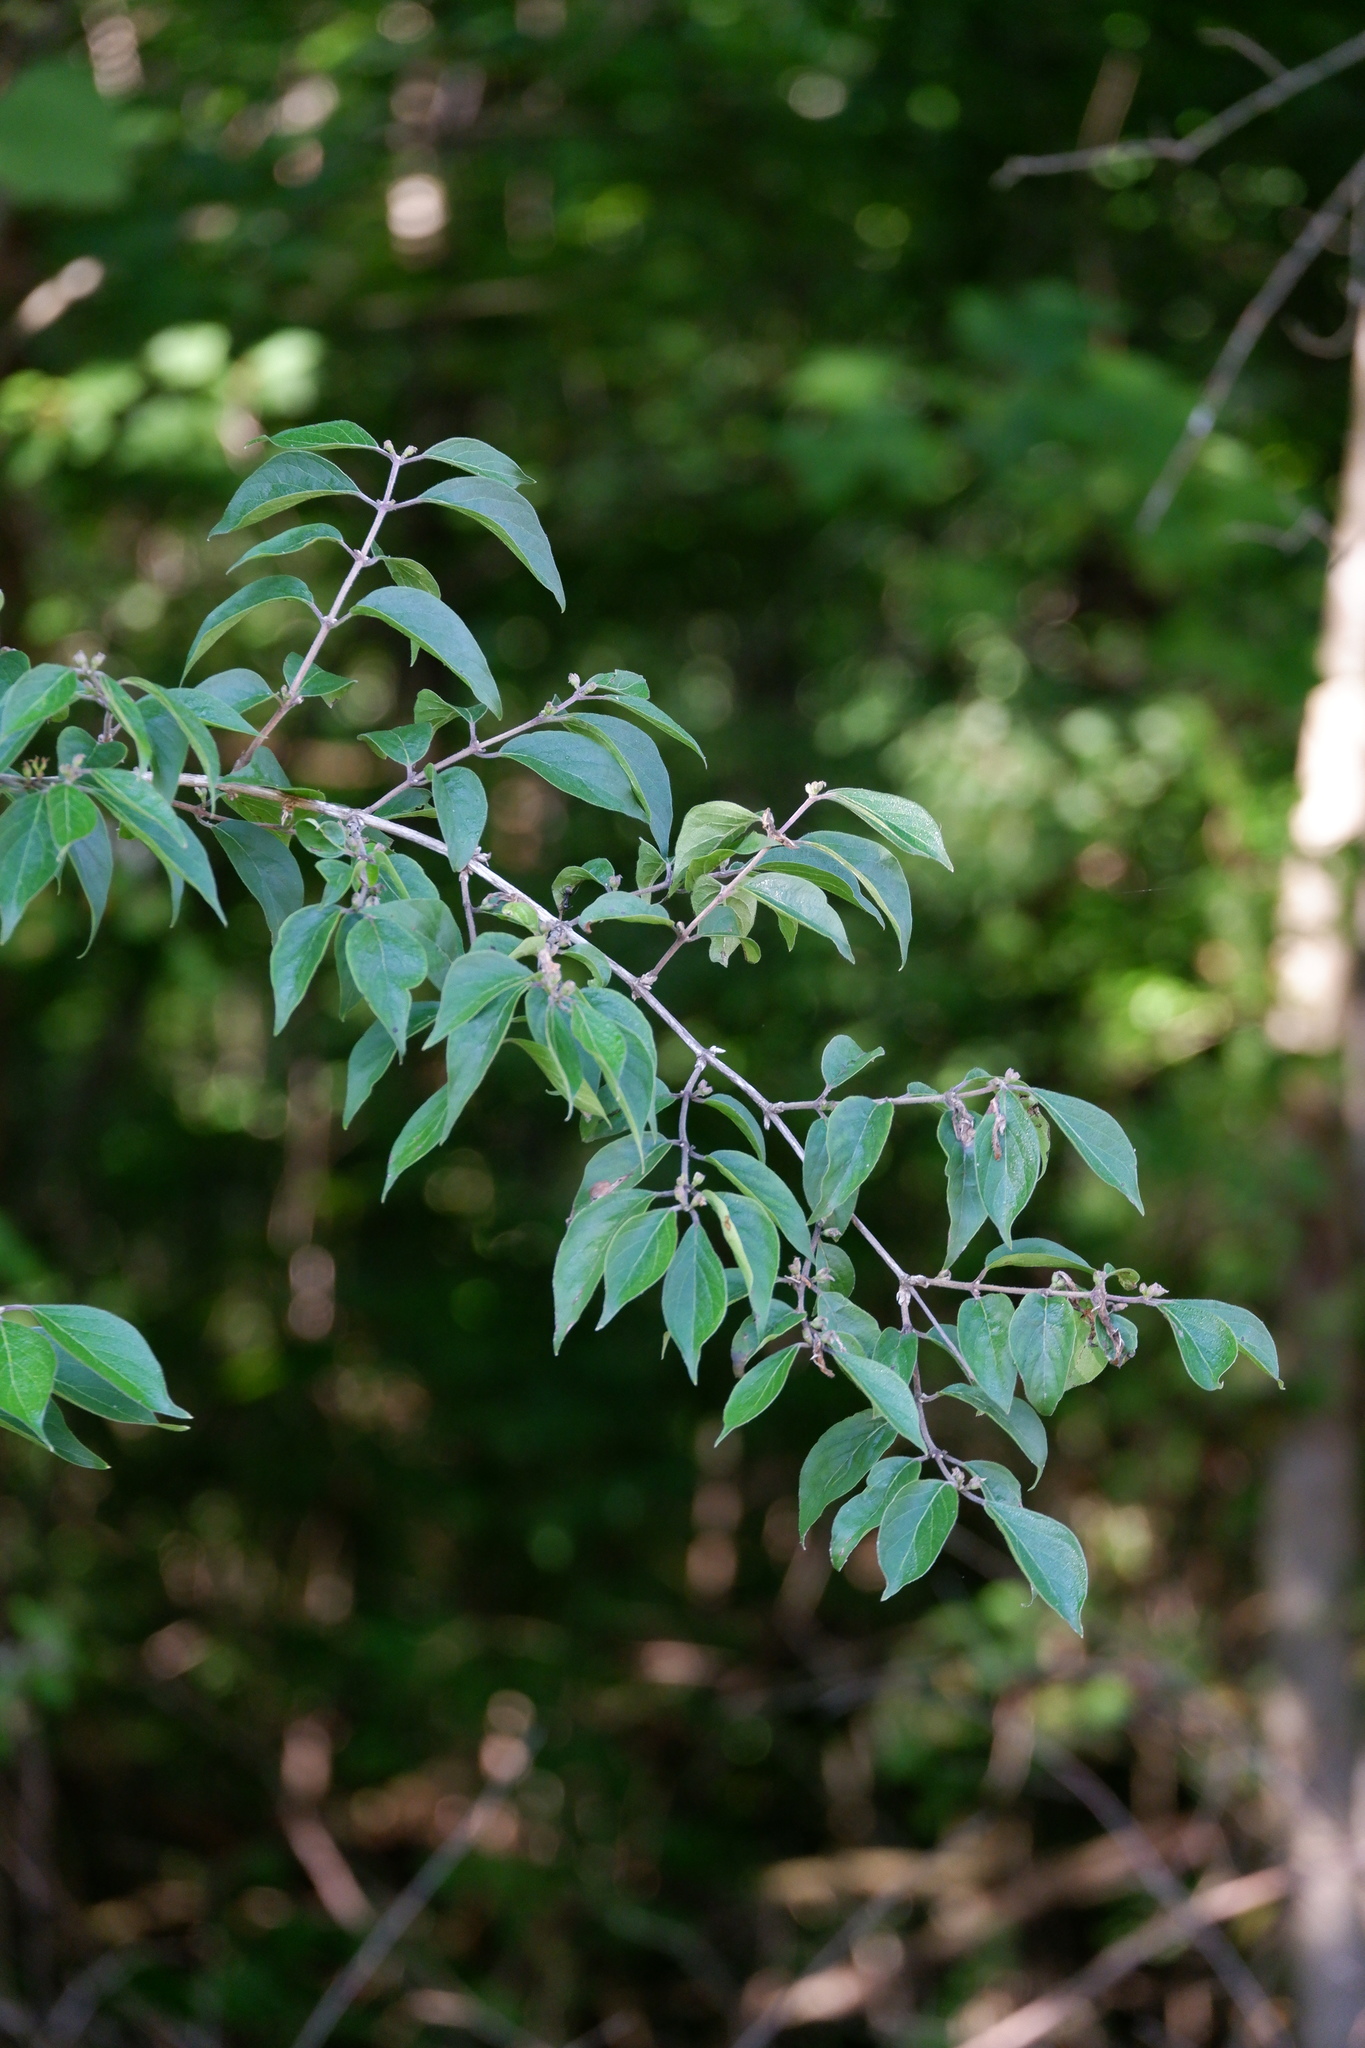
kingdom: Plantae
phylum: Tracheophyta
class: Magnoliopsida
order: Dipsacales
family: Caprifoliaceae
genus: Lonicera
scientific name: Lonicera maackii
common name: Amur honeysuckle
